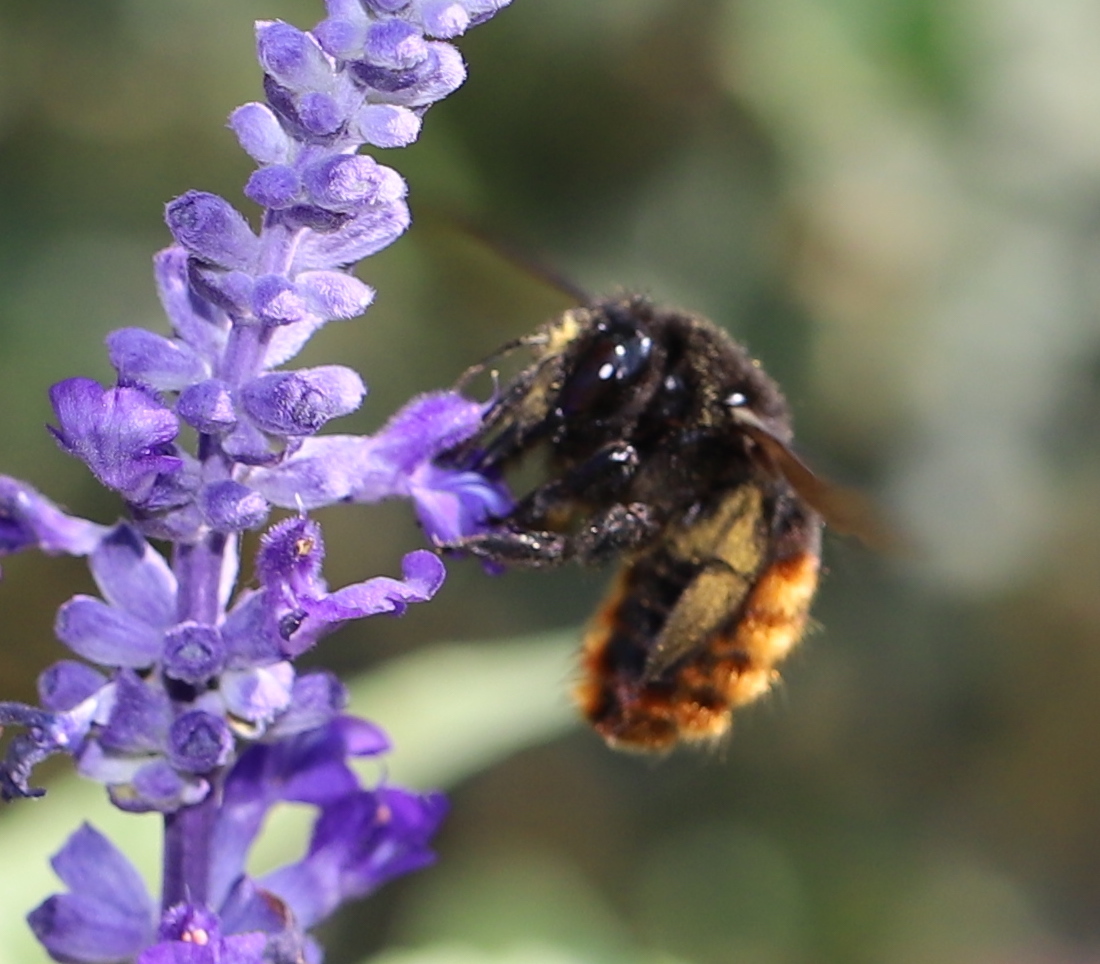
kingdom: Animalia
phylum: Arthropoda
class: Insecta
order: Hymenoptera
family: Apidae
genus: Xylocopa
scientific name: Xylocopa augusti
